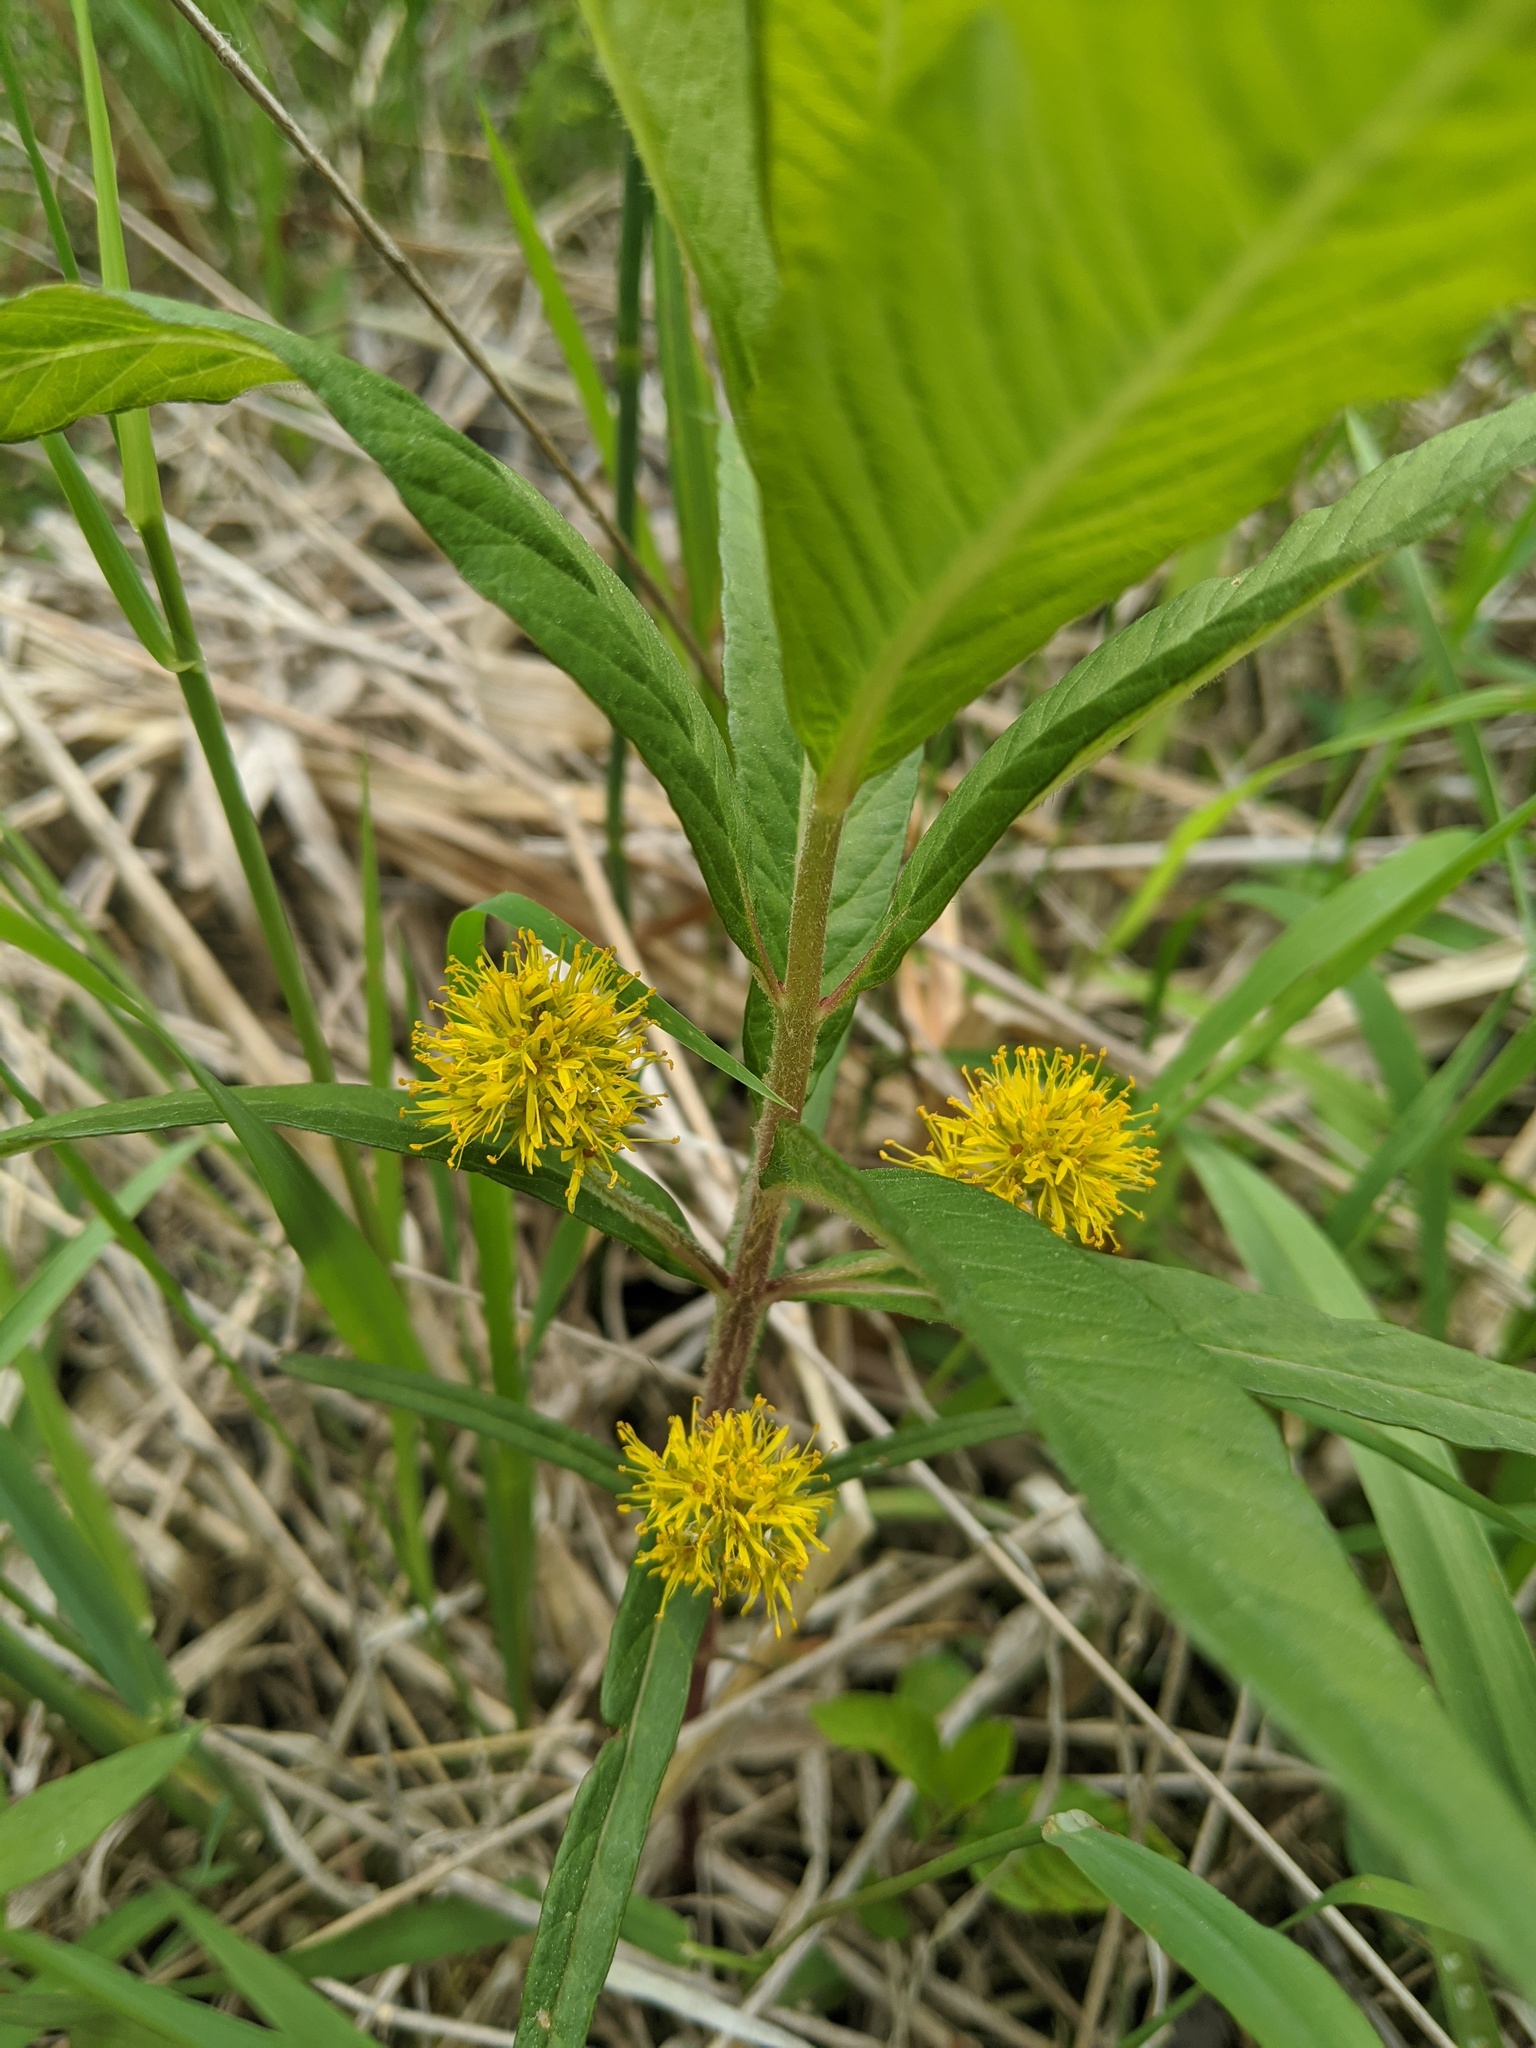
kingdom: Plantae
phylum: Tracheophyta
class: Magnoliopsida
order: Ericales
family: Primulaceae
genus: Lysimachia
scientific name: Lysimachia thyrsiflora
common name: Tufted loosestrife
